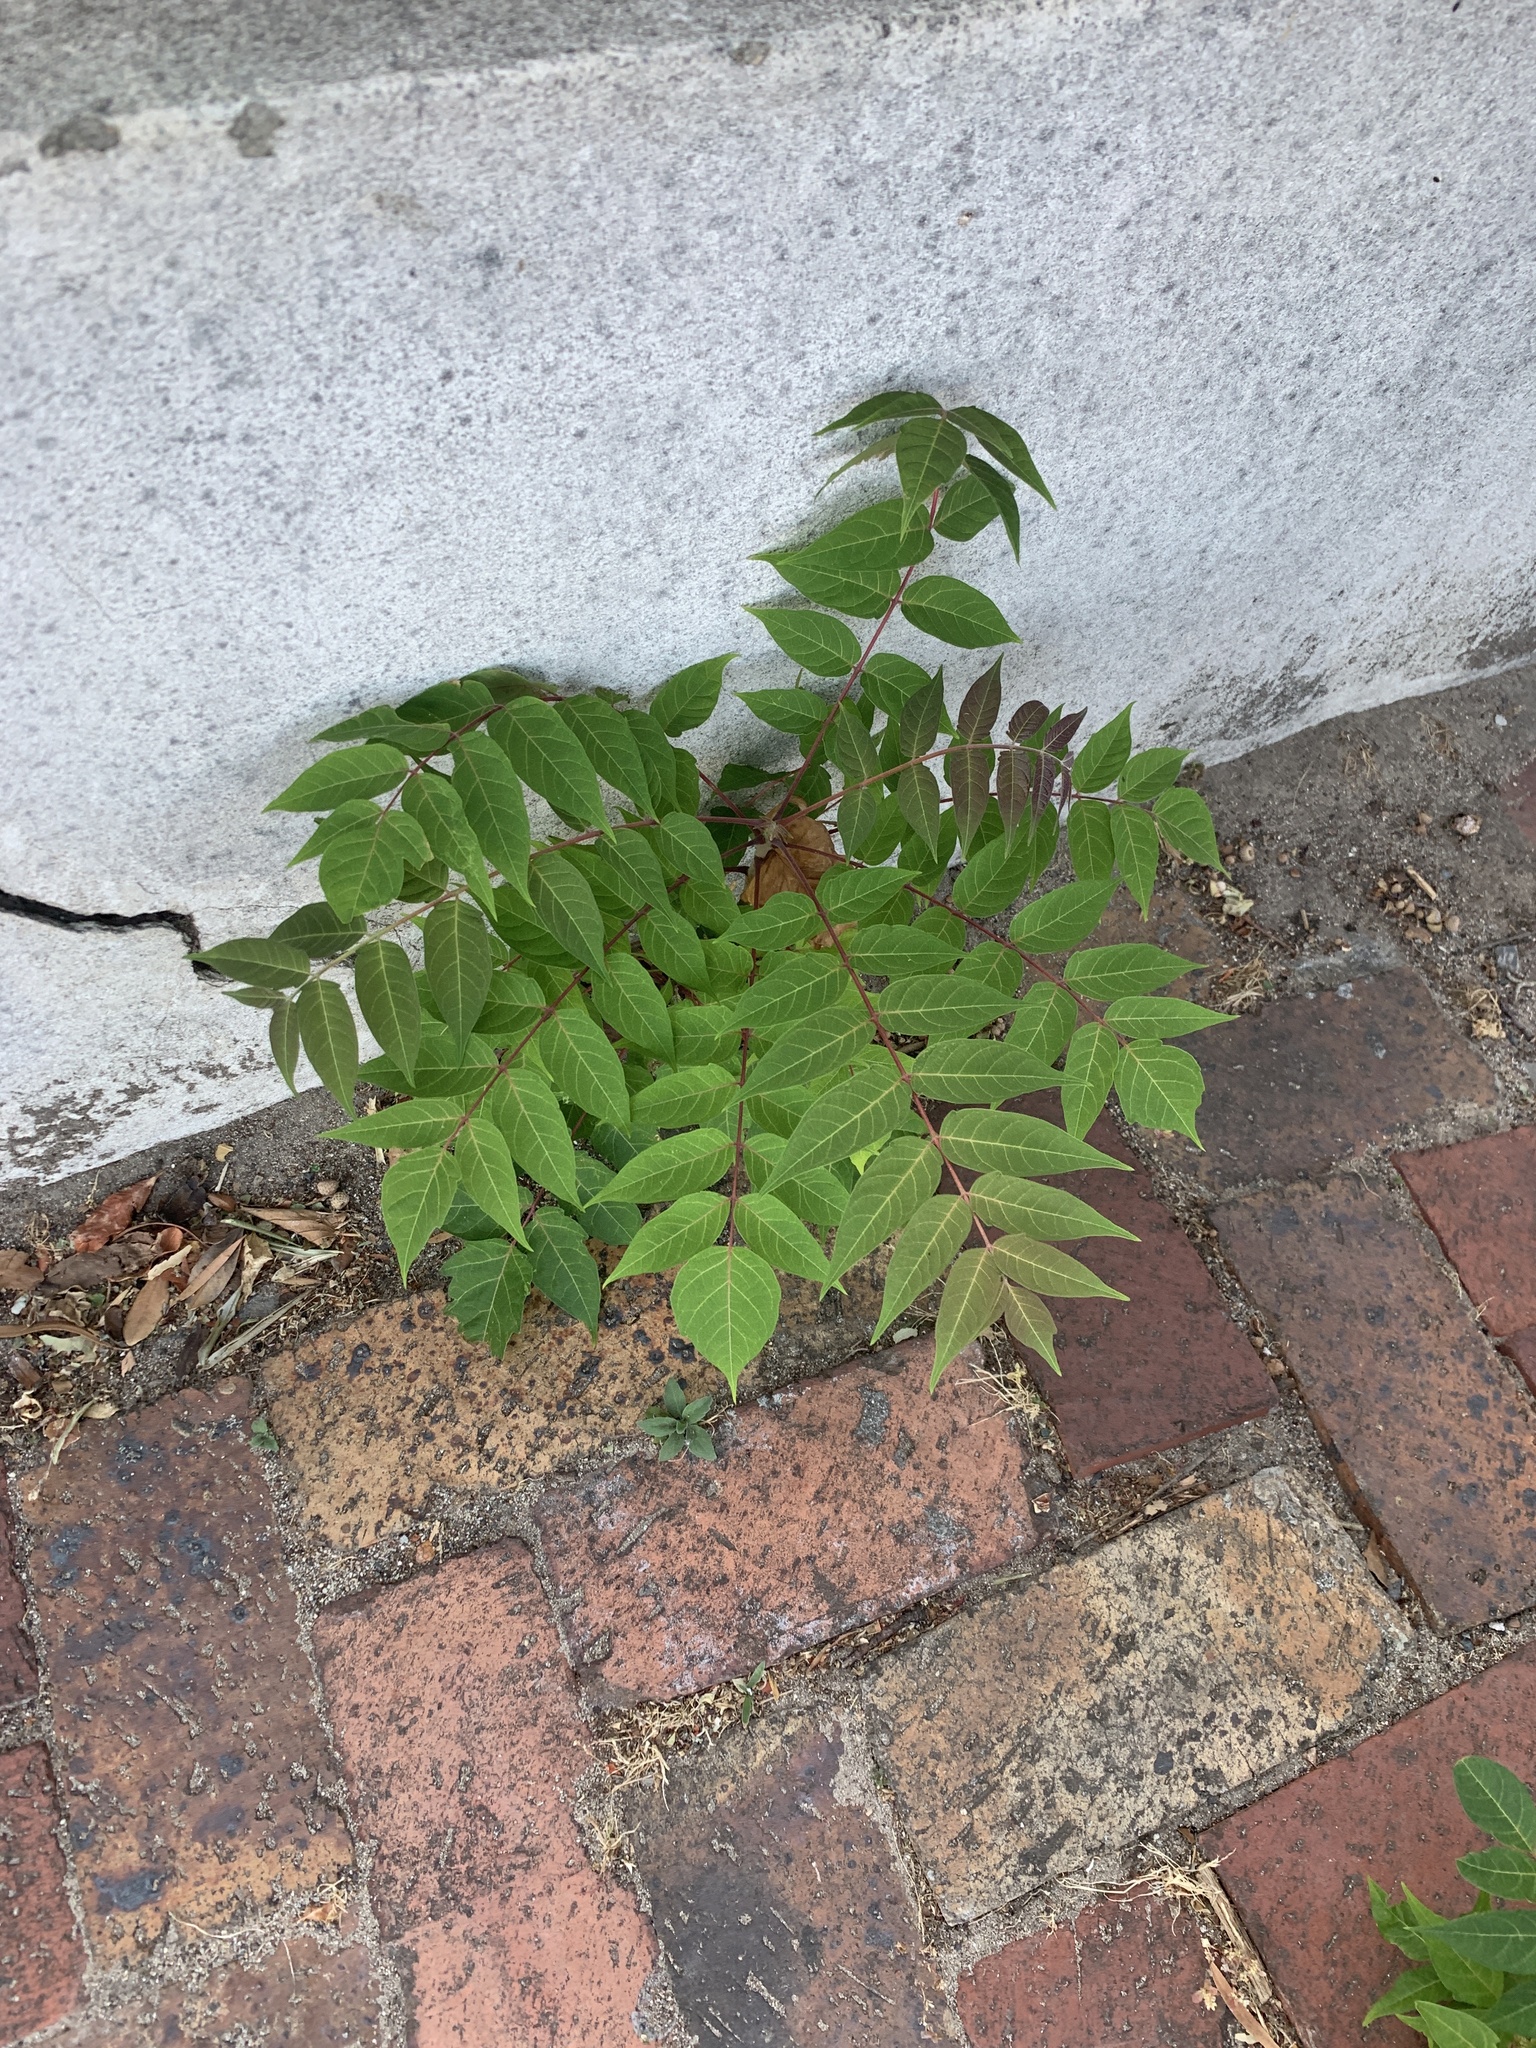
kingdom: Plantae
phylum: Tracheophyta
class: Magnoliopsida
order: Sapindales
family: Simaroubaceae
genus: Ailanthus
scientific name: Ailanthus altissima
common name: Tree-of-heaven
